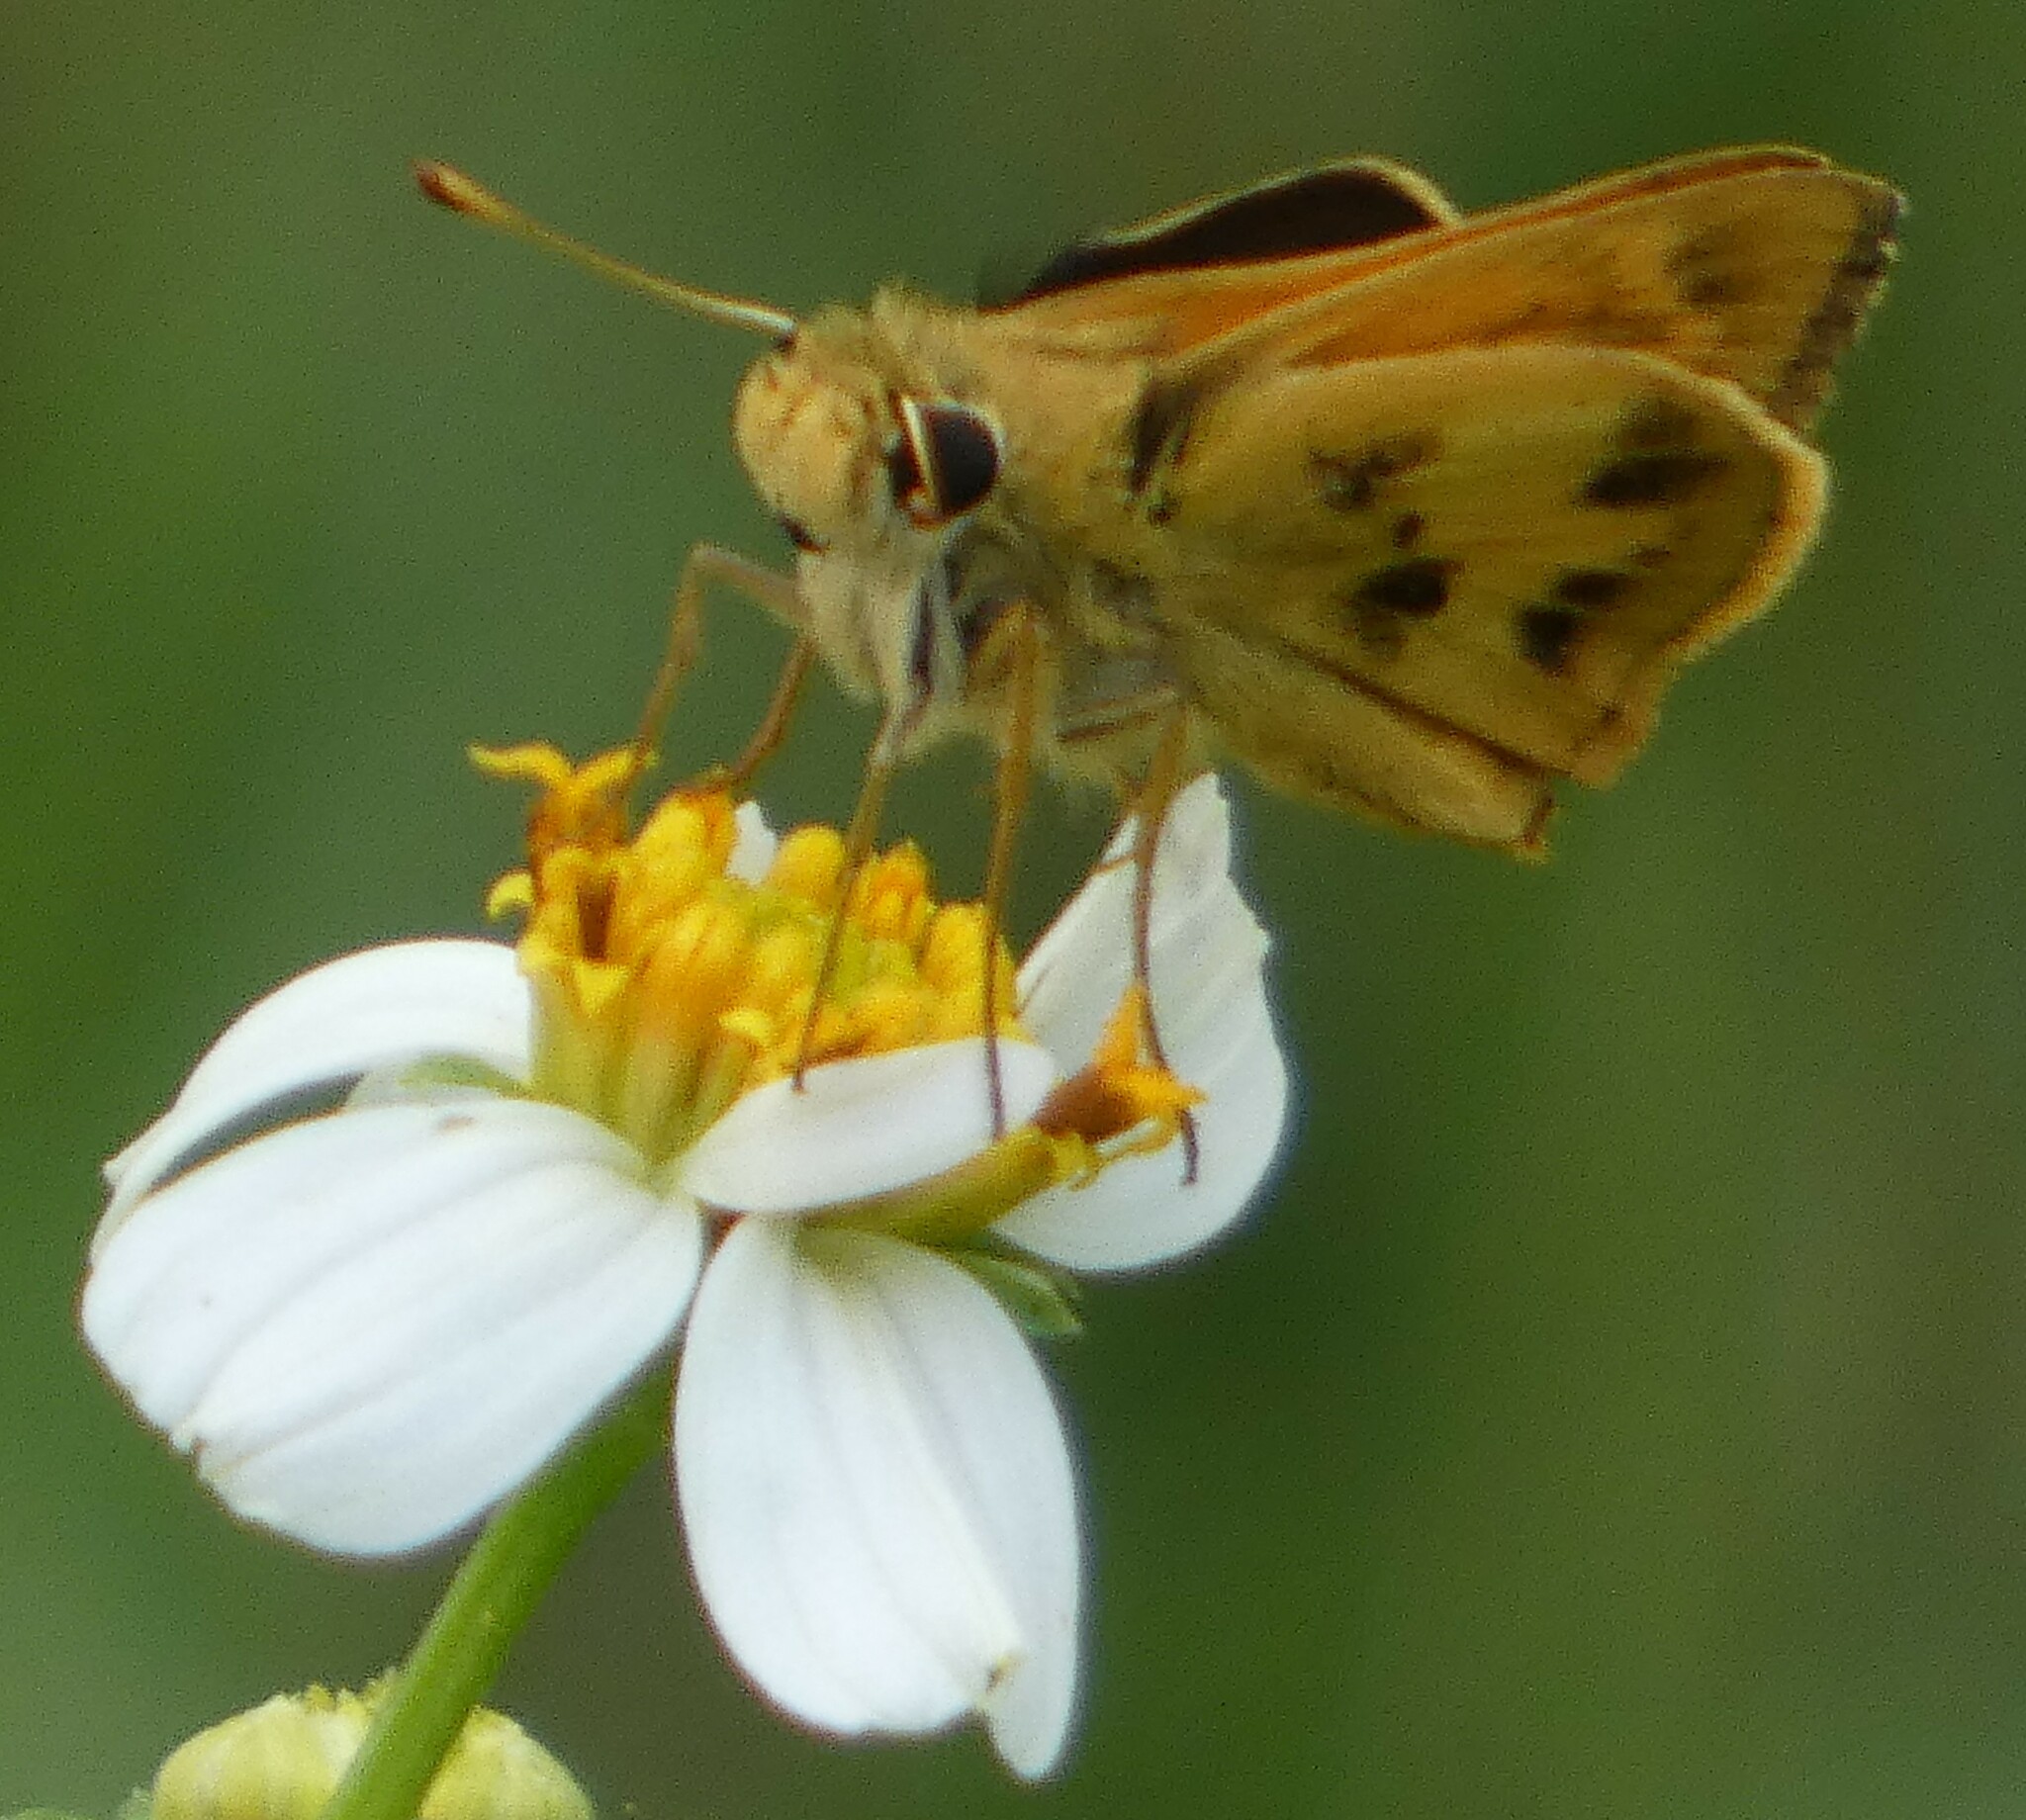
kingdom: Animalia
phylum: Arthropoda
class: Insecta
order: Lepidoptera
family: Hesperiidae
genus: Polites
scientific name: Polites vibex
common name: Whirlabout
